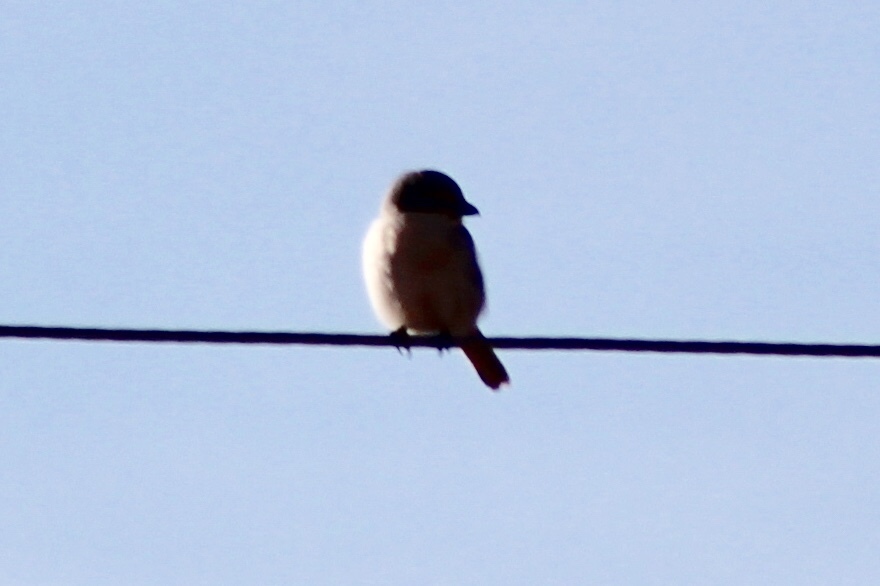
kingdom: Animalia
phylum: Chordata
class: Aves
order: Passeriformes
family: Laniidae
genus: Lanius
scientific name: Lanius ludovicianus
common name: Loggerhead shrike
